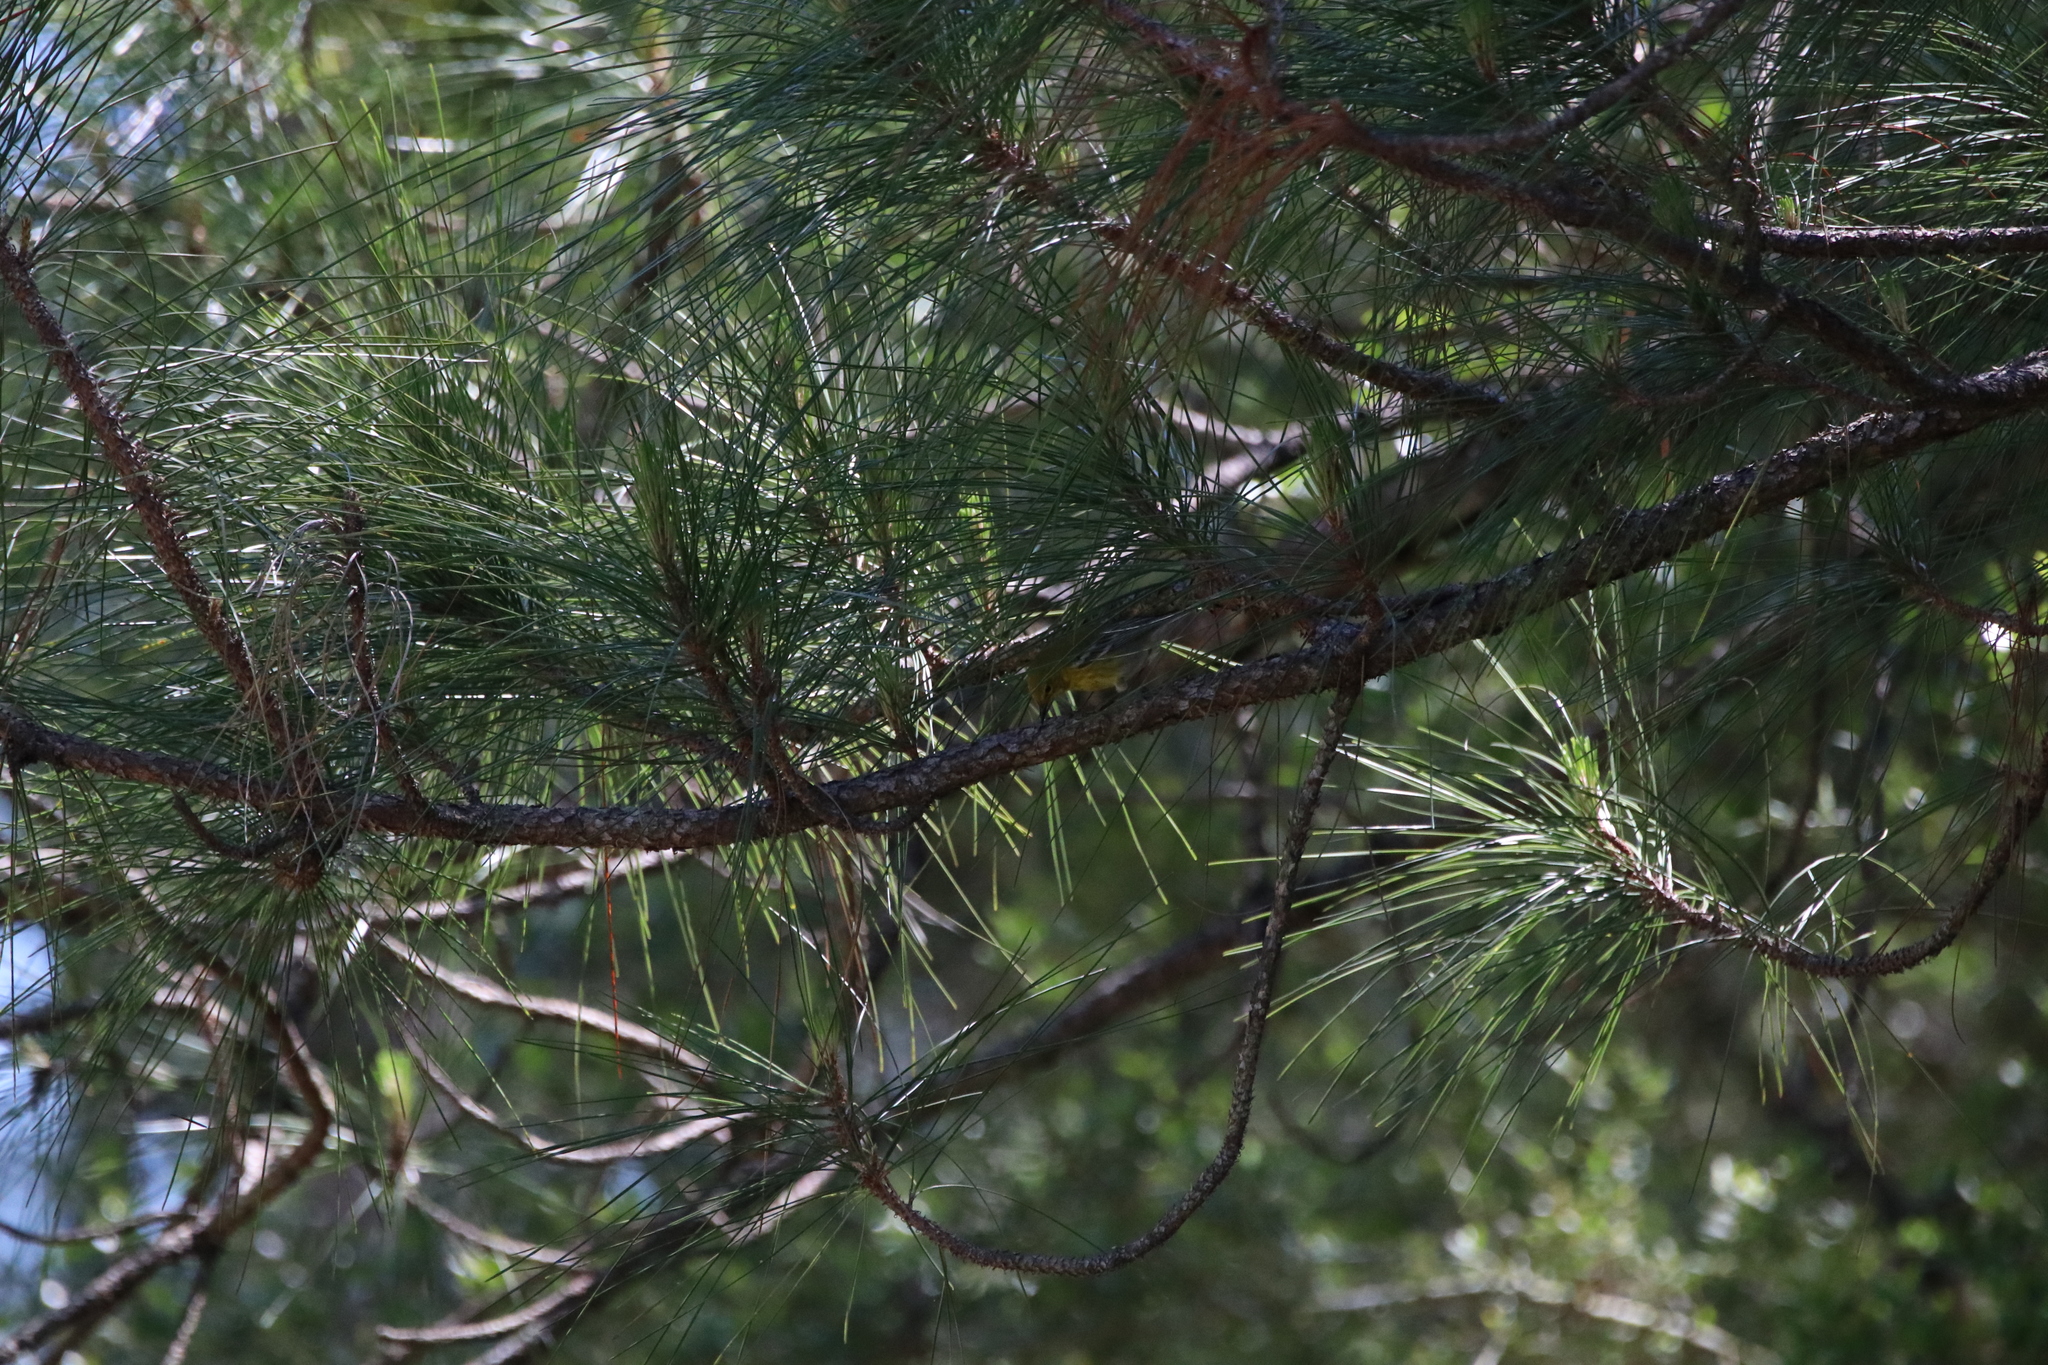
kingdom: Animalia
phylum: Chordata
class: Aves
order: Passeriformes
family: Parulidae
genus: Setophaga
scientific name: Setophaga pinus
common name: Pine warbler
